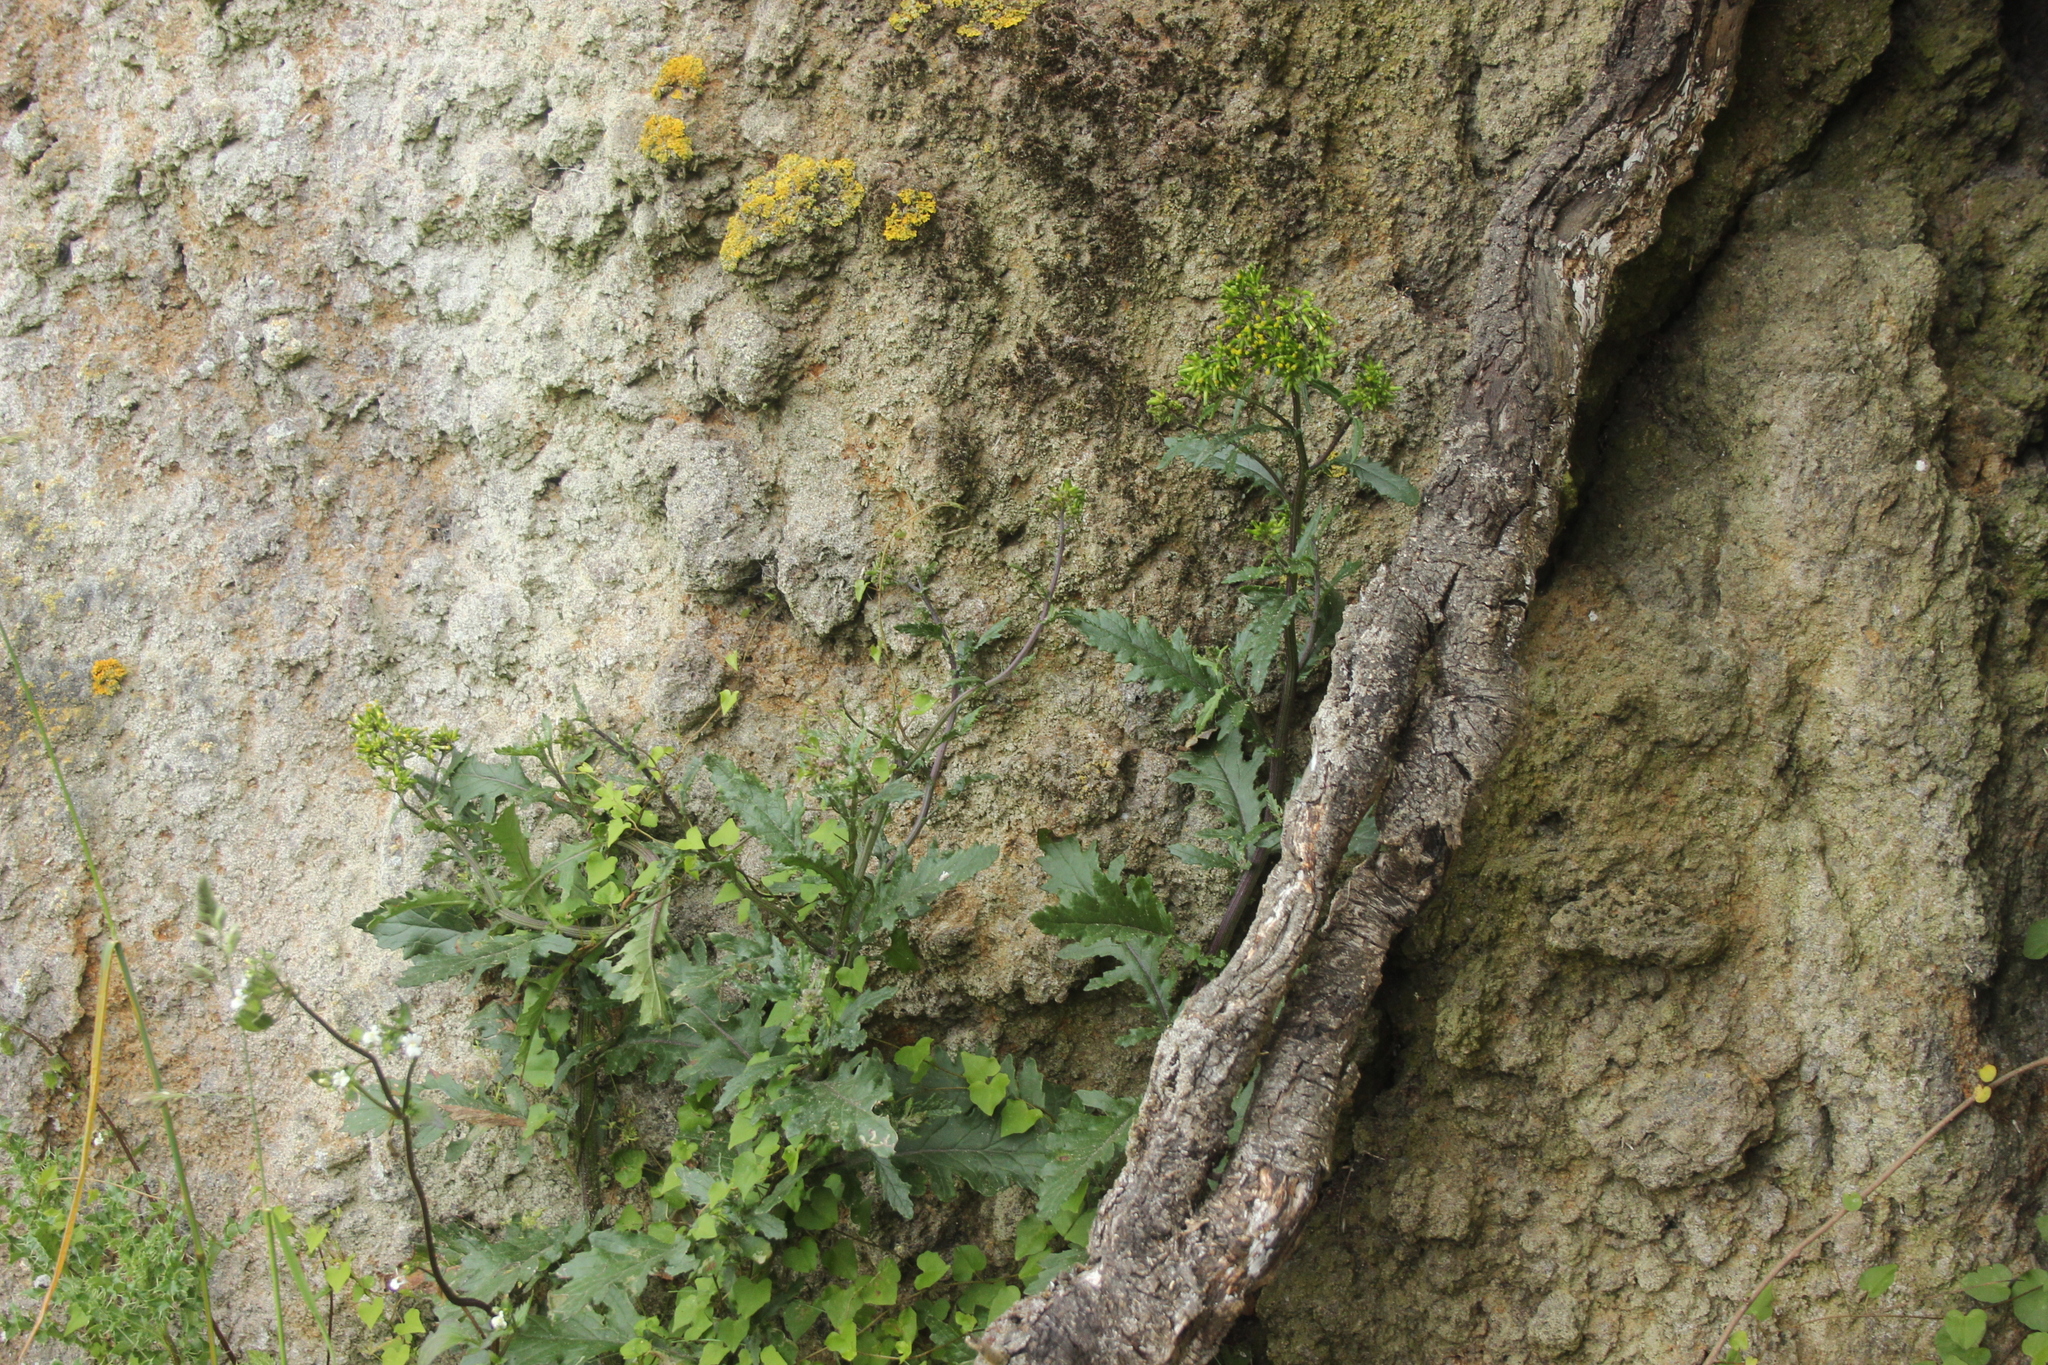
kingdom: Plantae
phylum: Tracheophyta
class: Magnoliopsida
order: Asterales
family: Asteraceae
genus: Senecio
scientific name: Senecio biserratus
